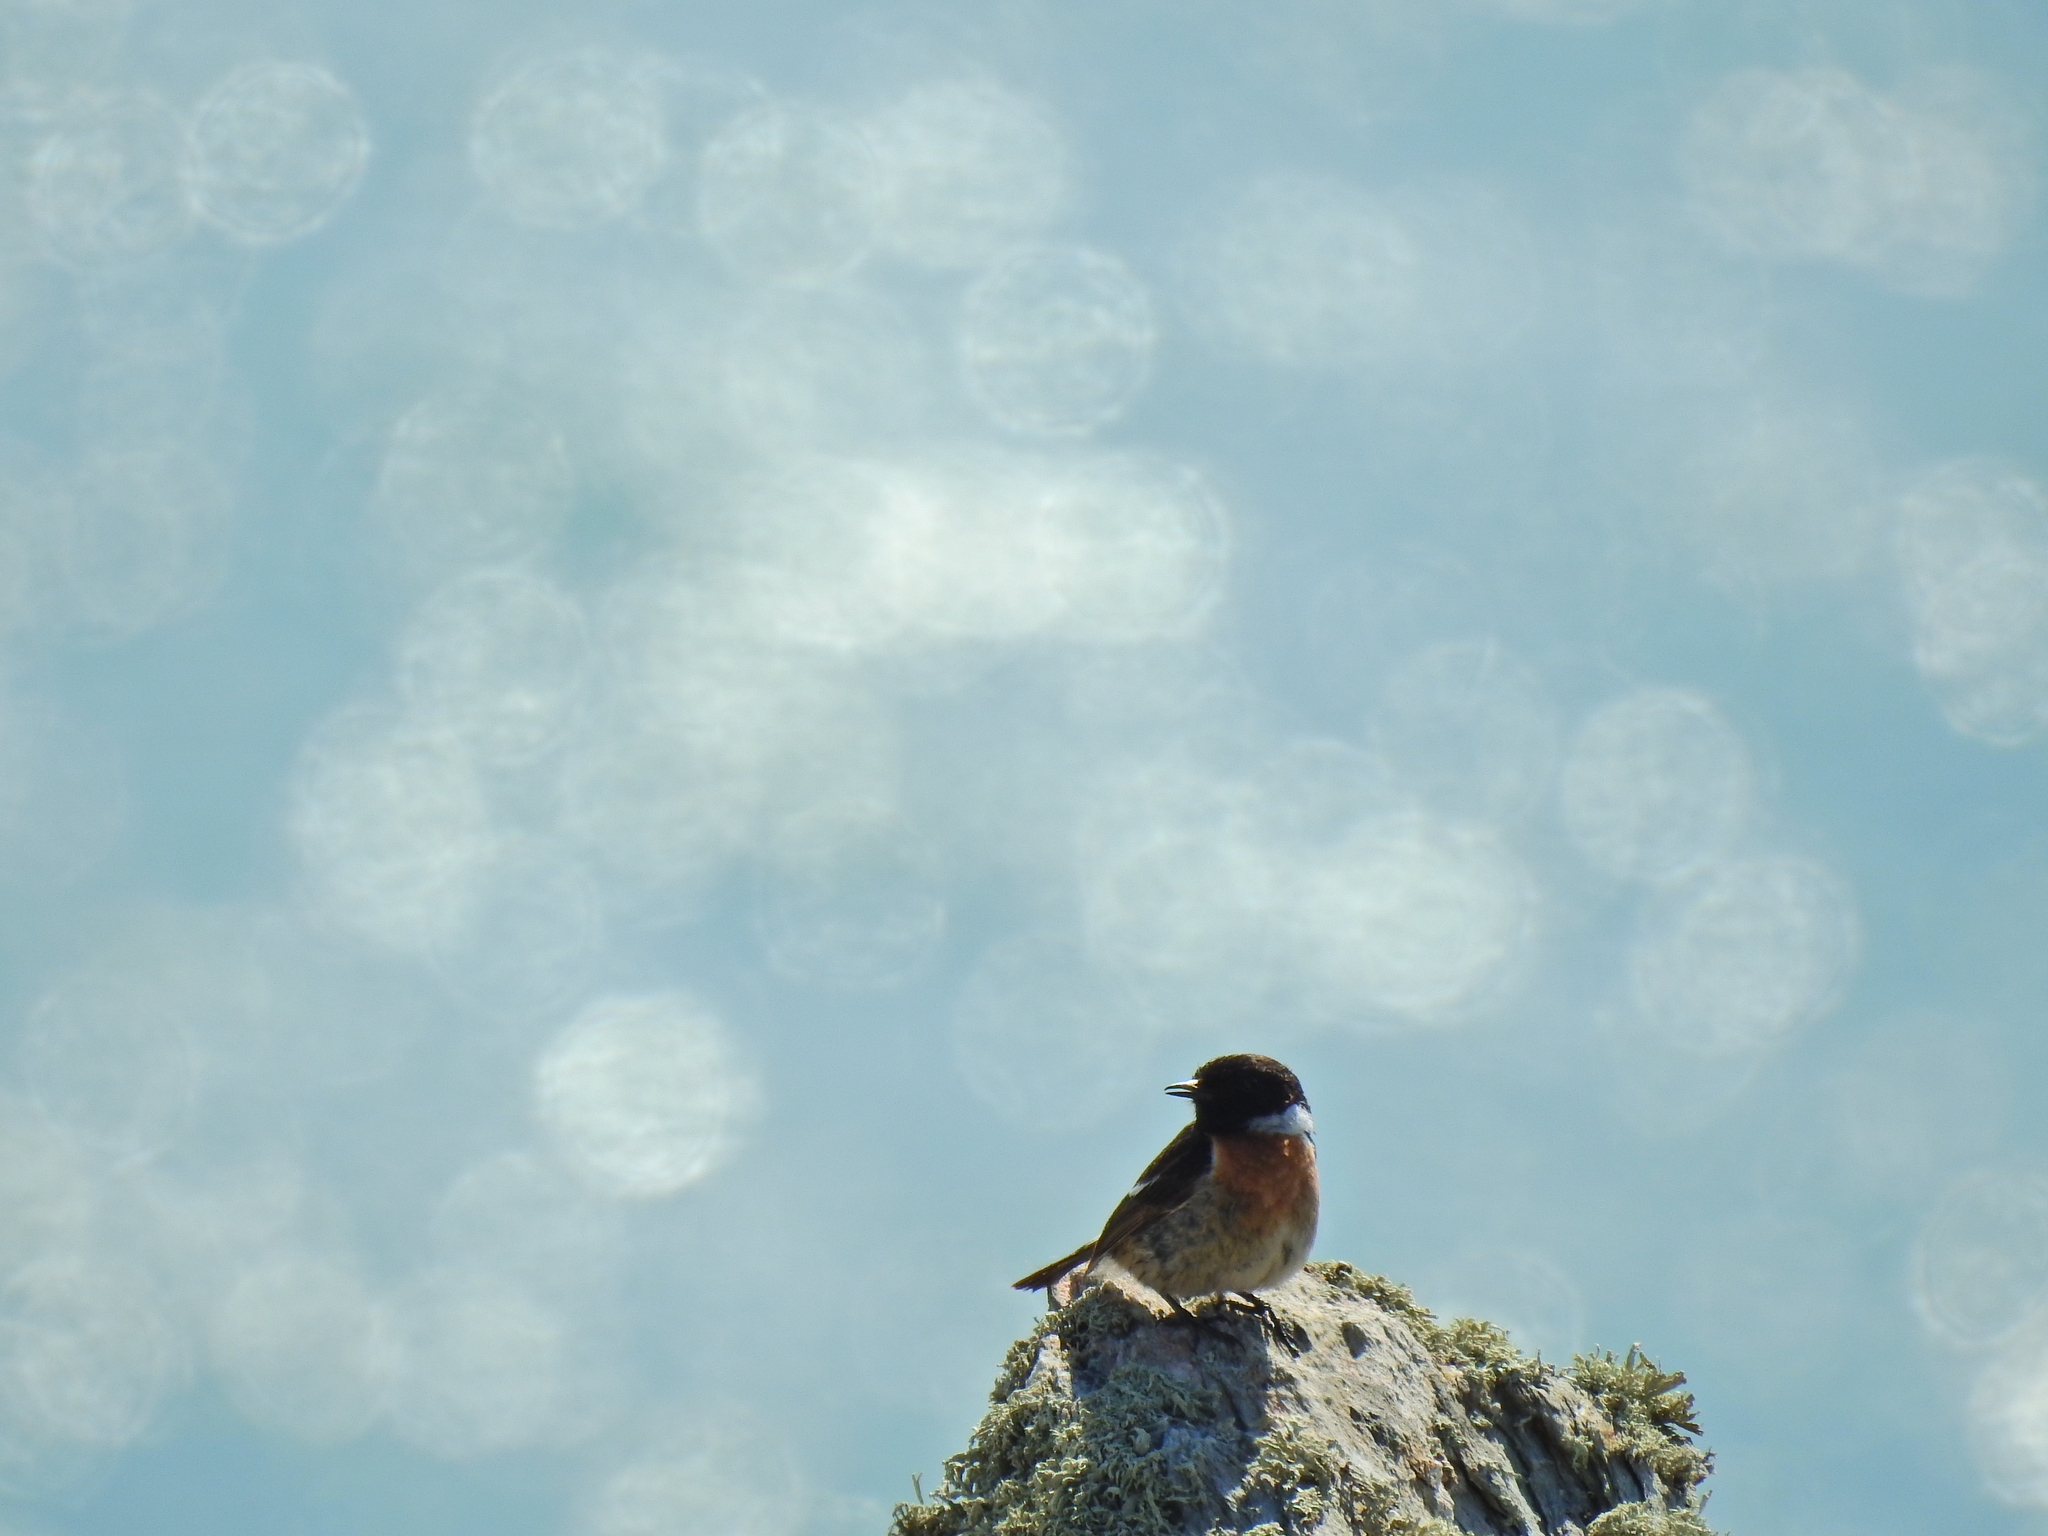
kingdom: Animalia
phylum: Chordata
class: Aves
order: Passeriformes
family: Muscicapidae
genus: Saxicola
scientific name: Saxicola rubicola
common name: European stonechat
